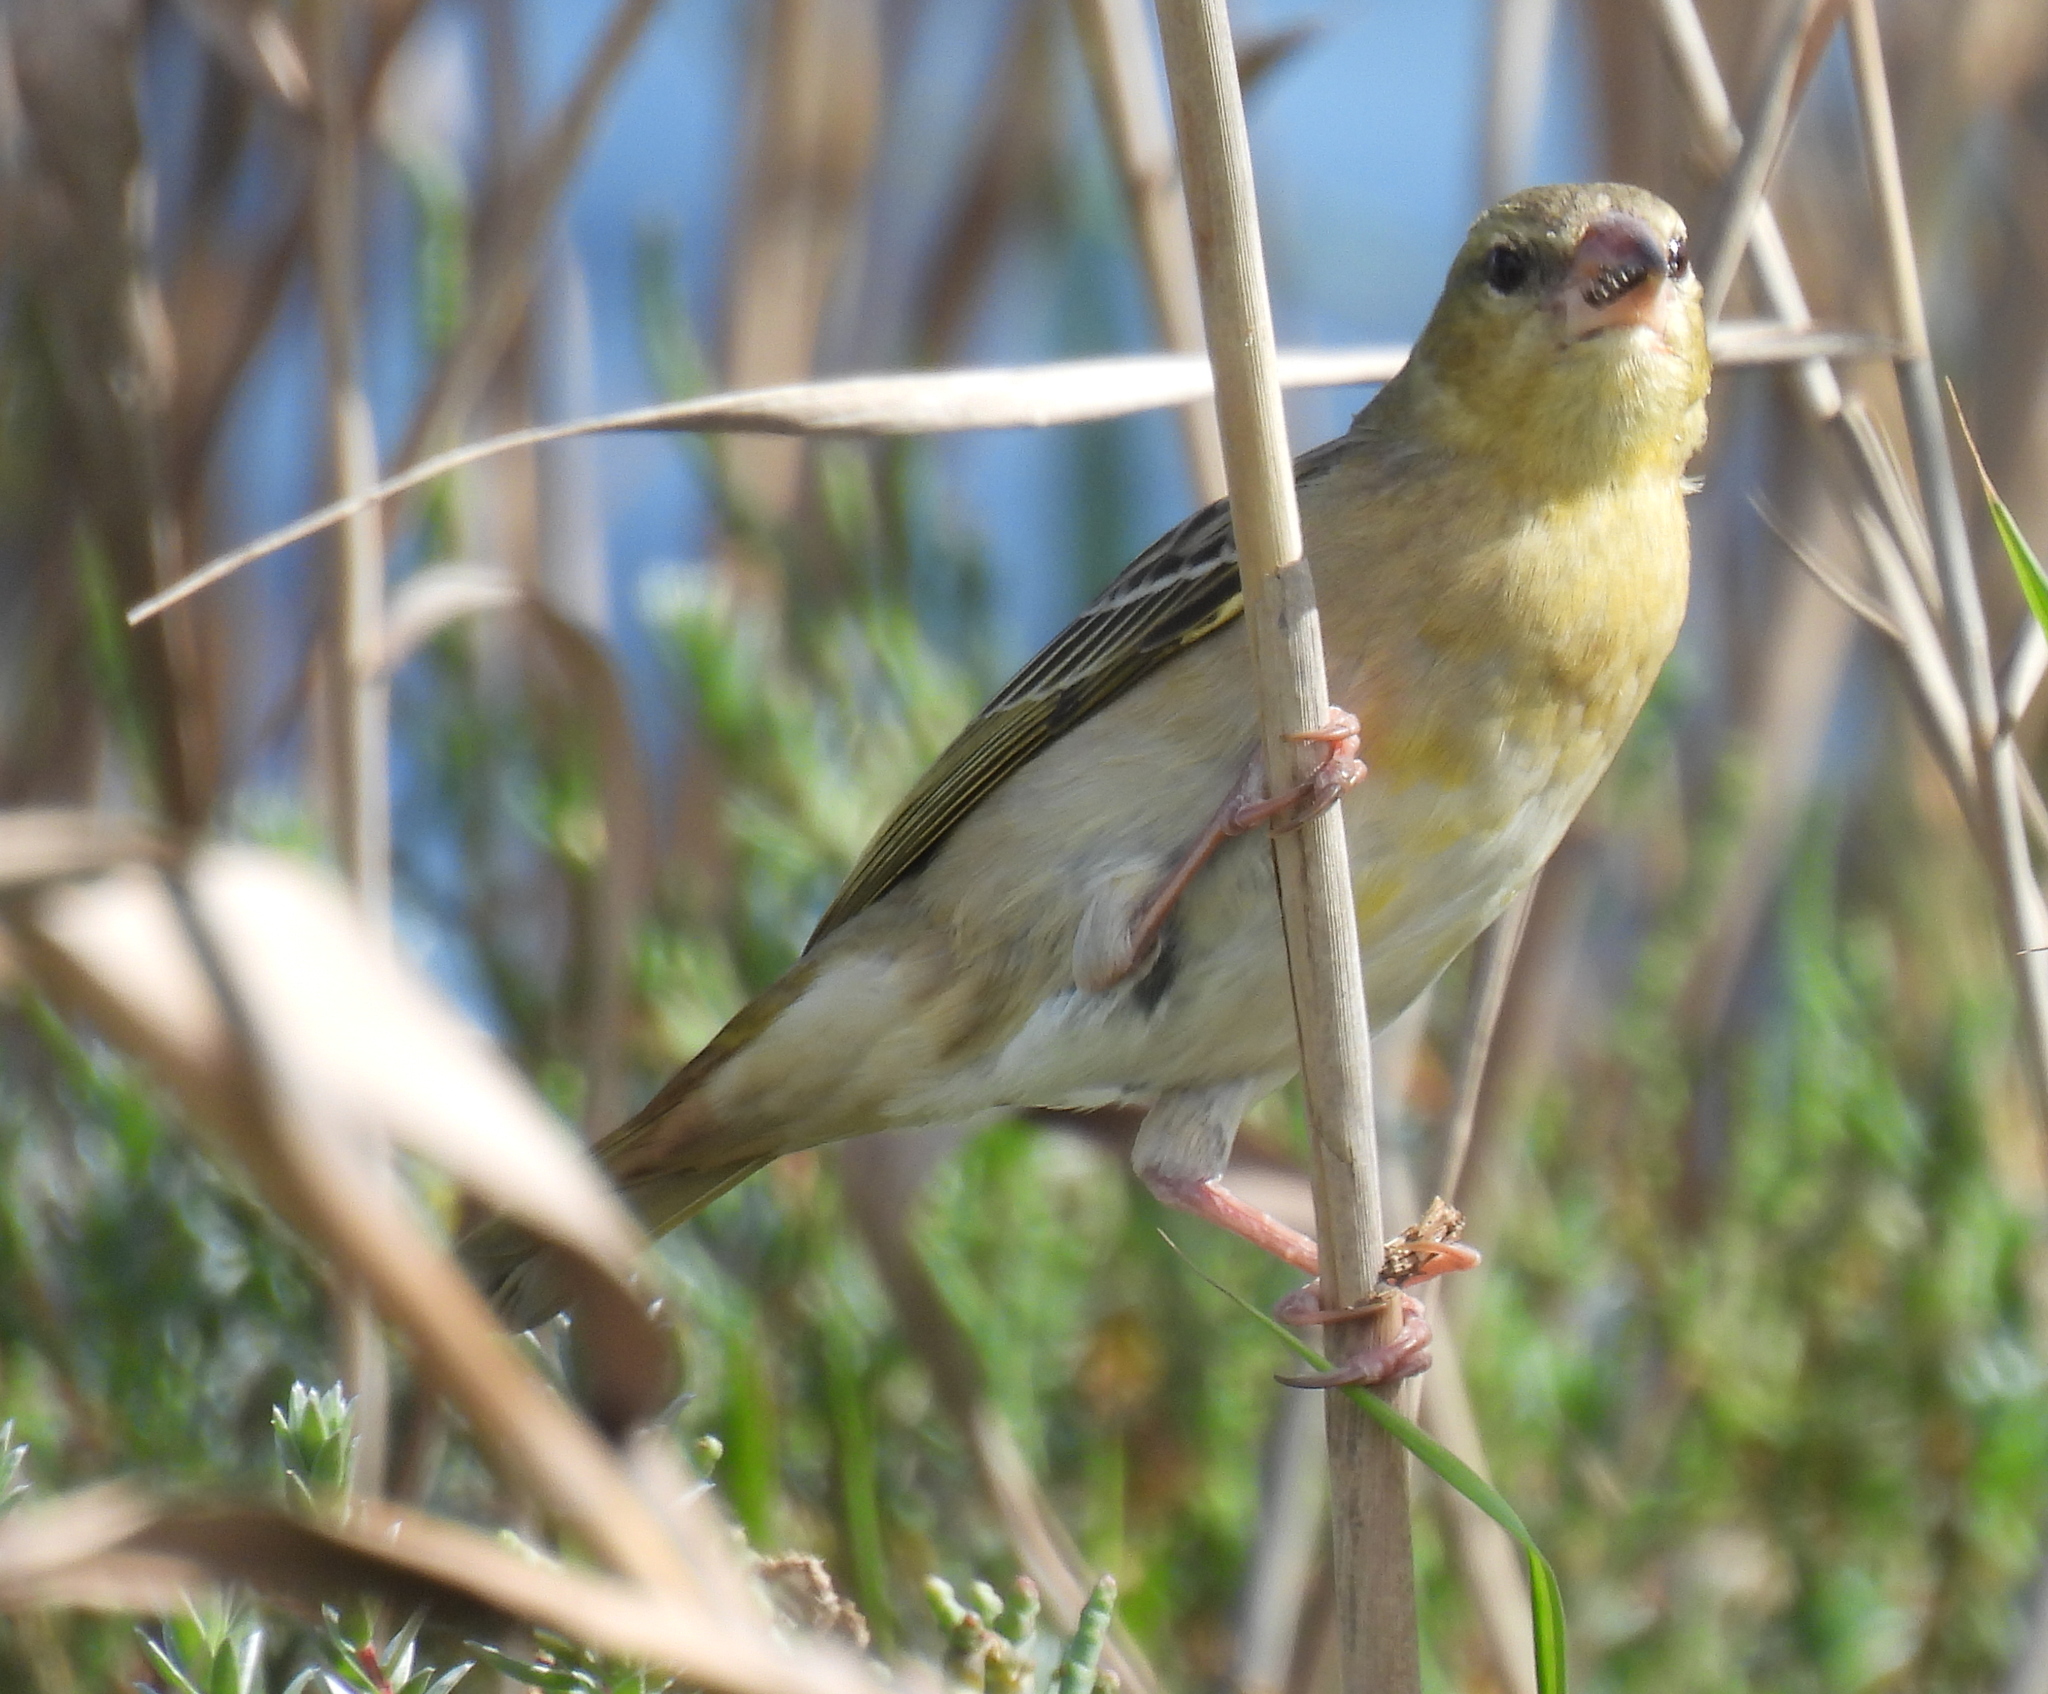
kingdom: Animalia
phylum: Chordata
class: Aves
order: Passeriformes
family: Ploceidae
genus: Ploceus
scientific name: Ploceus velatus
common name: Southern masked weaver
